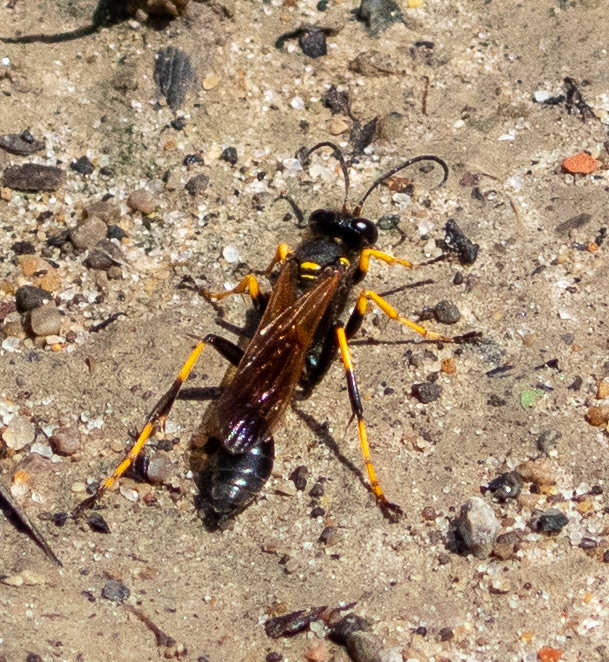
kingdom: Animalia
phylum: Arthropoda
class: Insecta
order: Hymenoptera
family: Sphecidae
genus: Sceliphron
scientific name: Sceliphron caementarium
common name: Mud dauber
